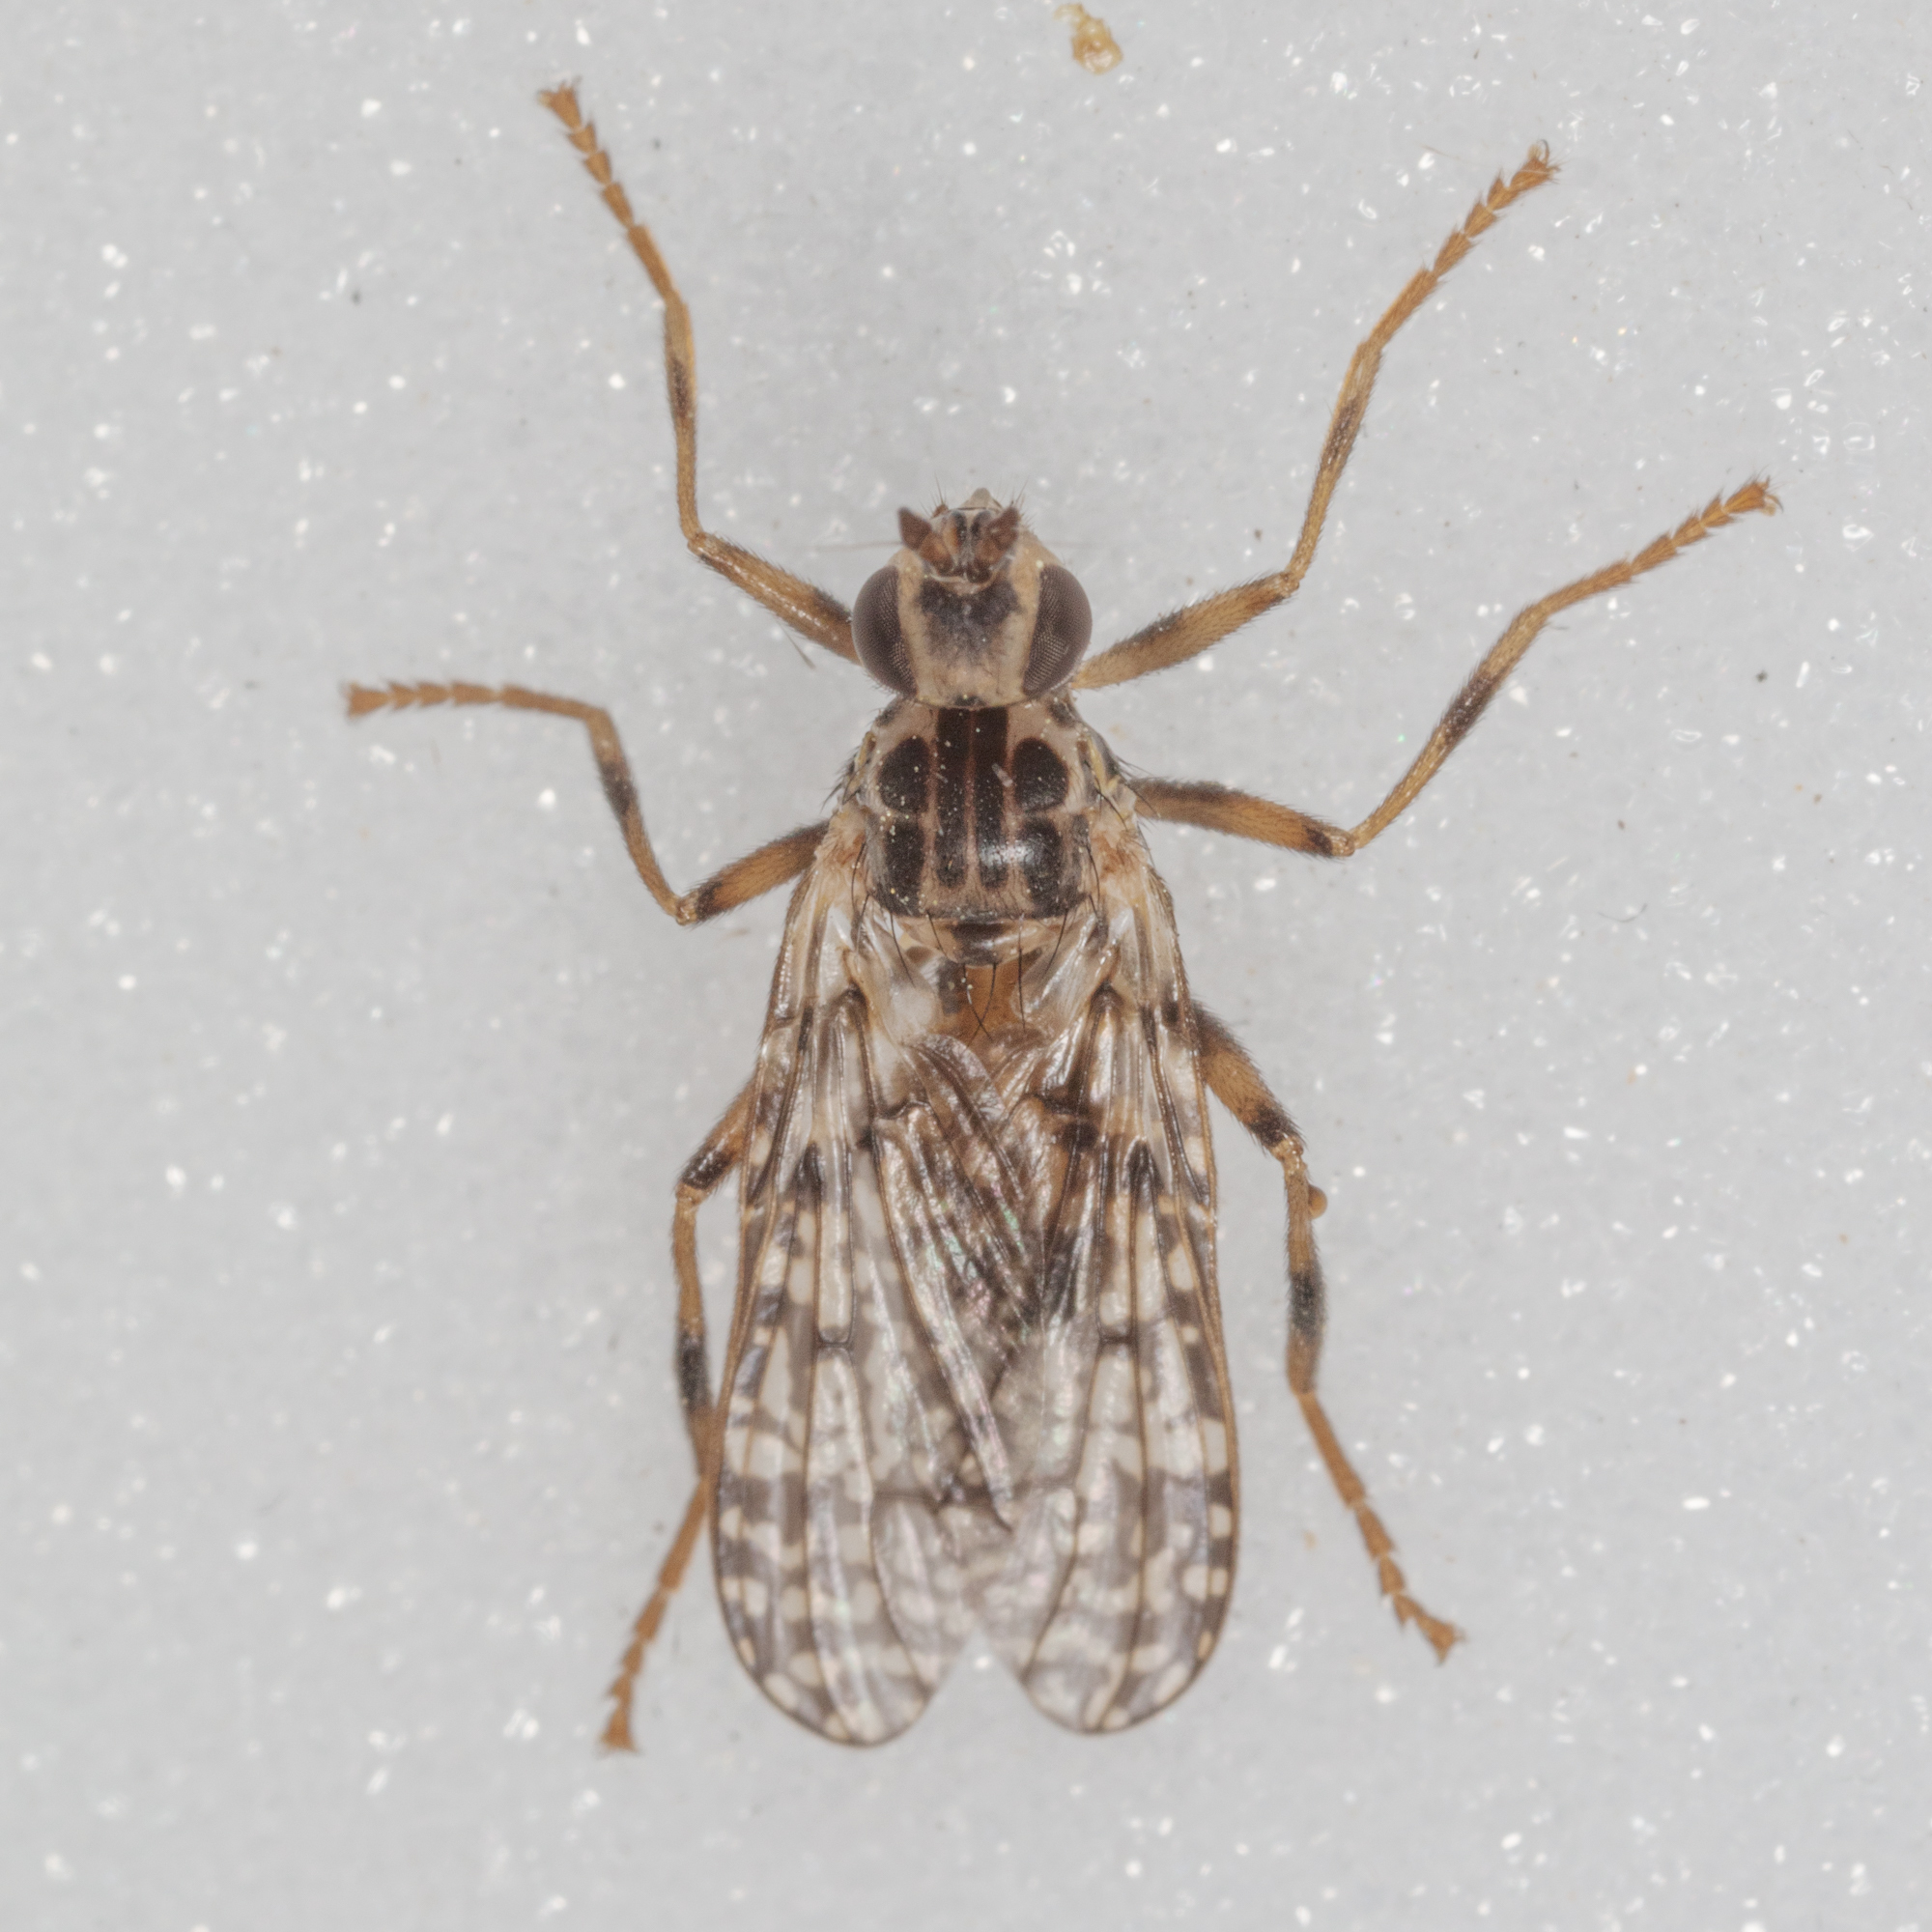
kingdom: Animalia
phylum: Arthropoda
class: Insecta
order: Diptera
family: Pyrgotidae
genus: Boreothrinax
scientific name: Boreothrinax
